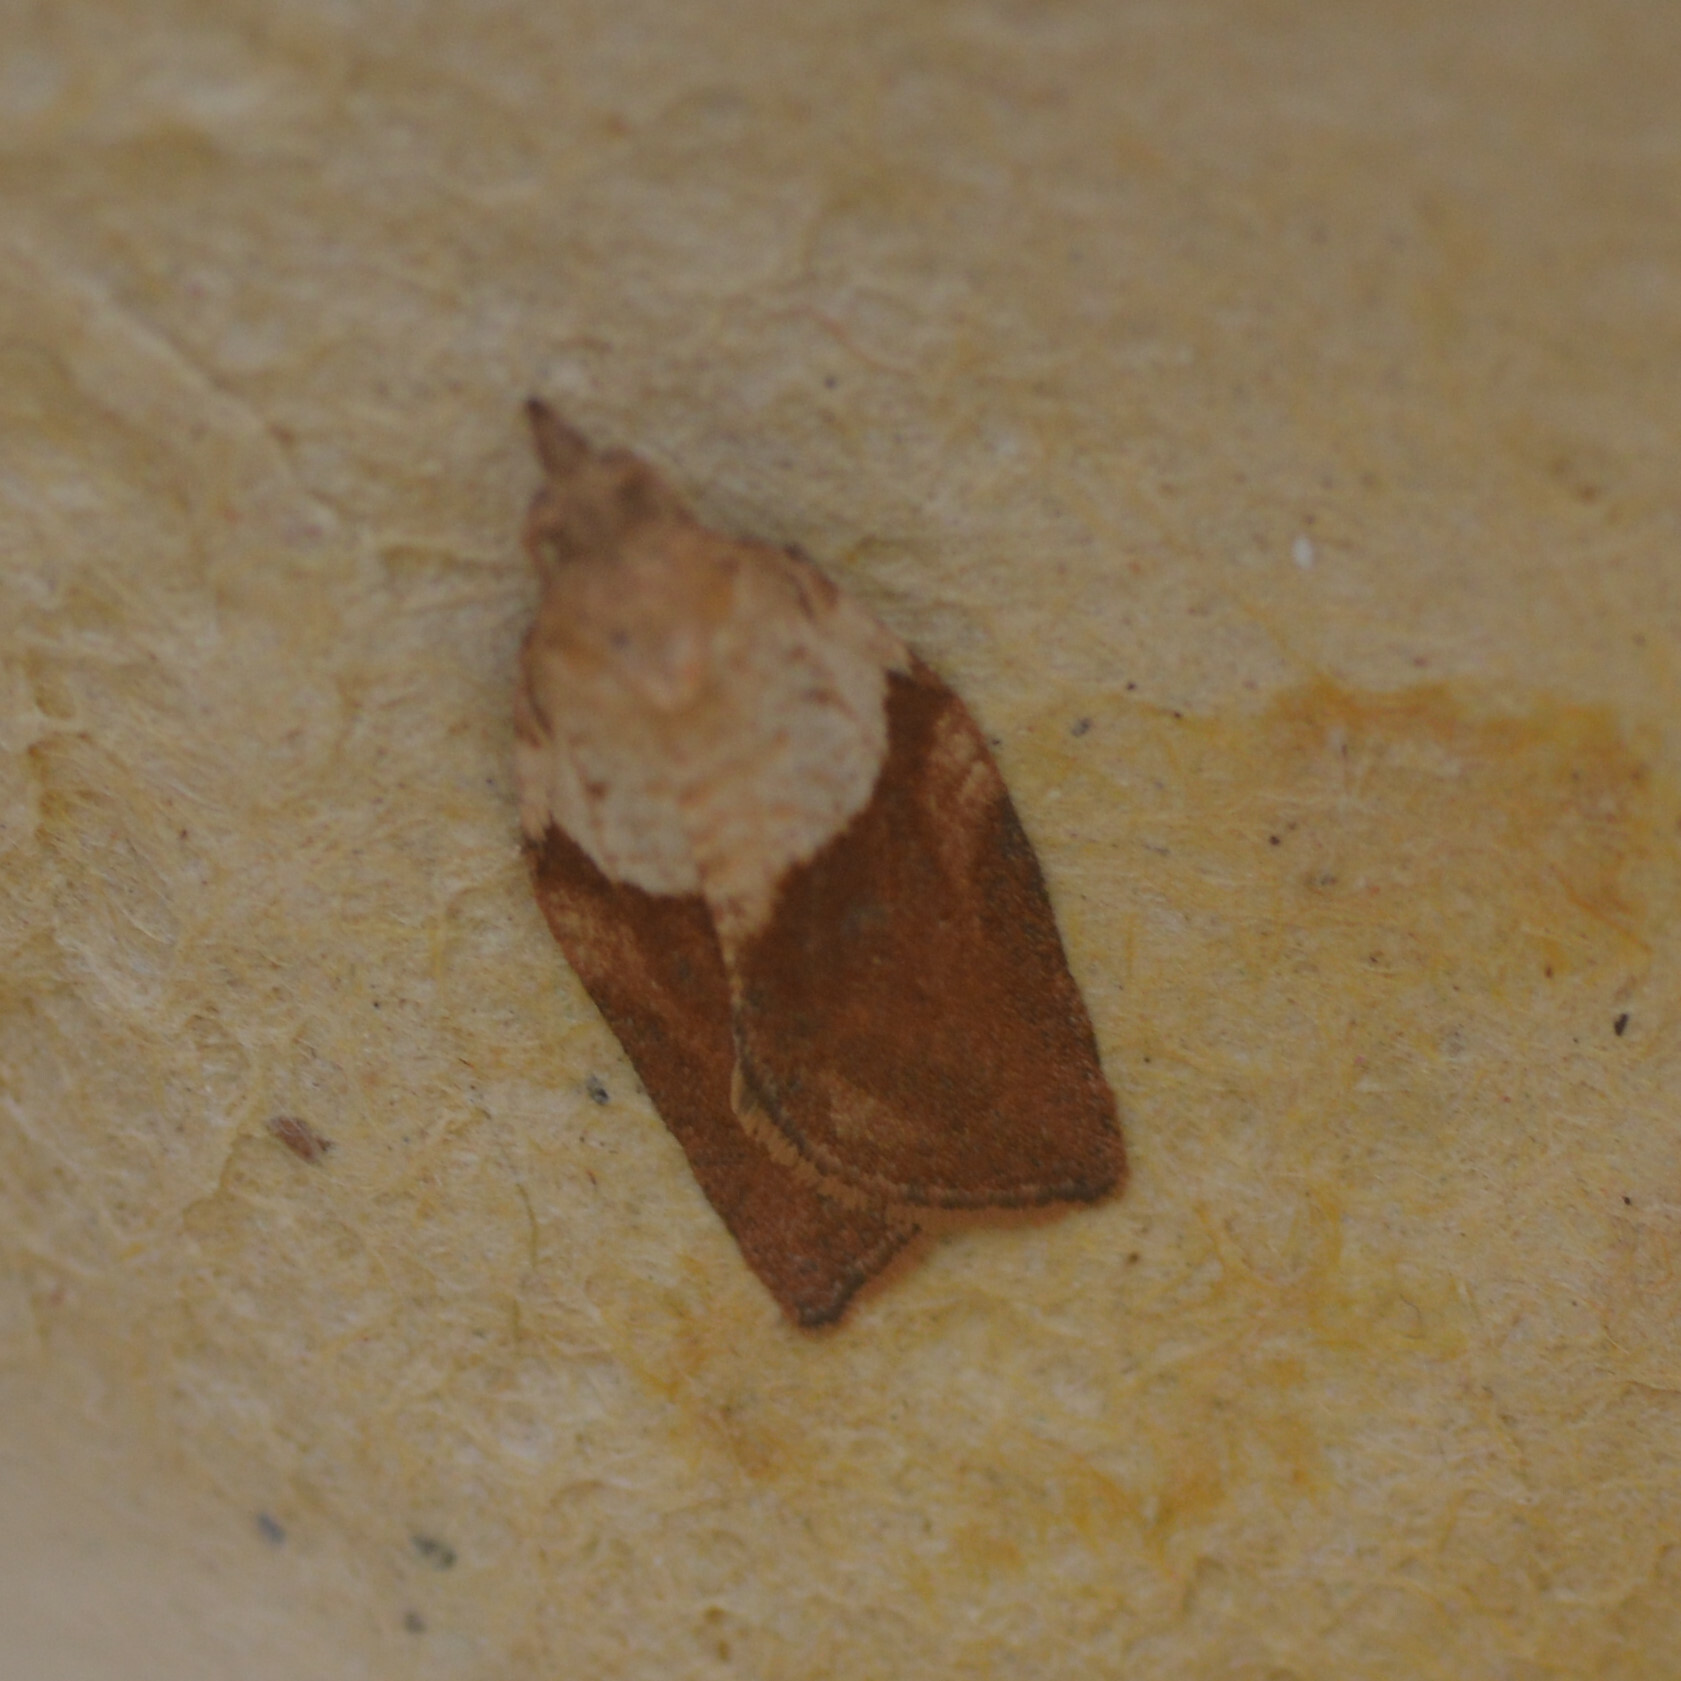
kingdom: Animalia
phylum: Arthropoda
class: Insecta
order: Lepidoptera
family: Tortricidae
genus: Epiphyas
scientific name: Epiphyas postvittana
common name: Light brown apple moth
